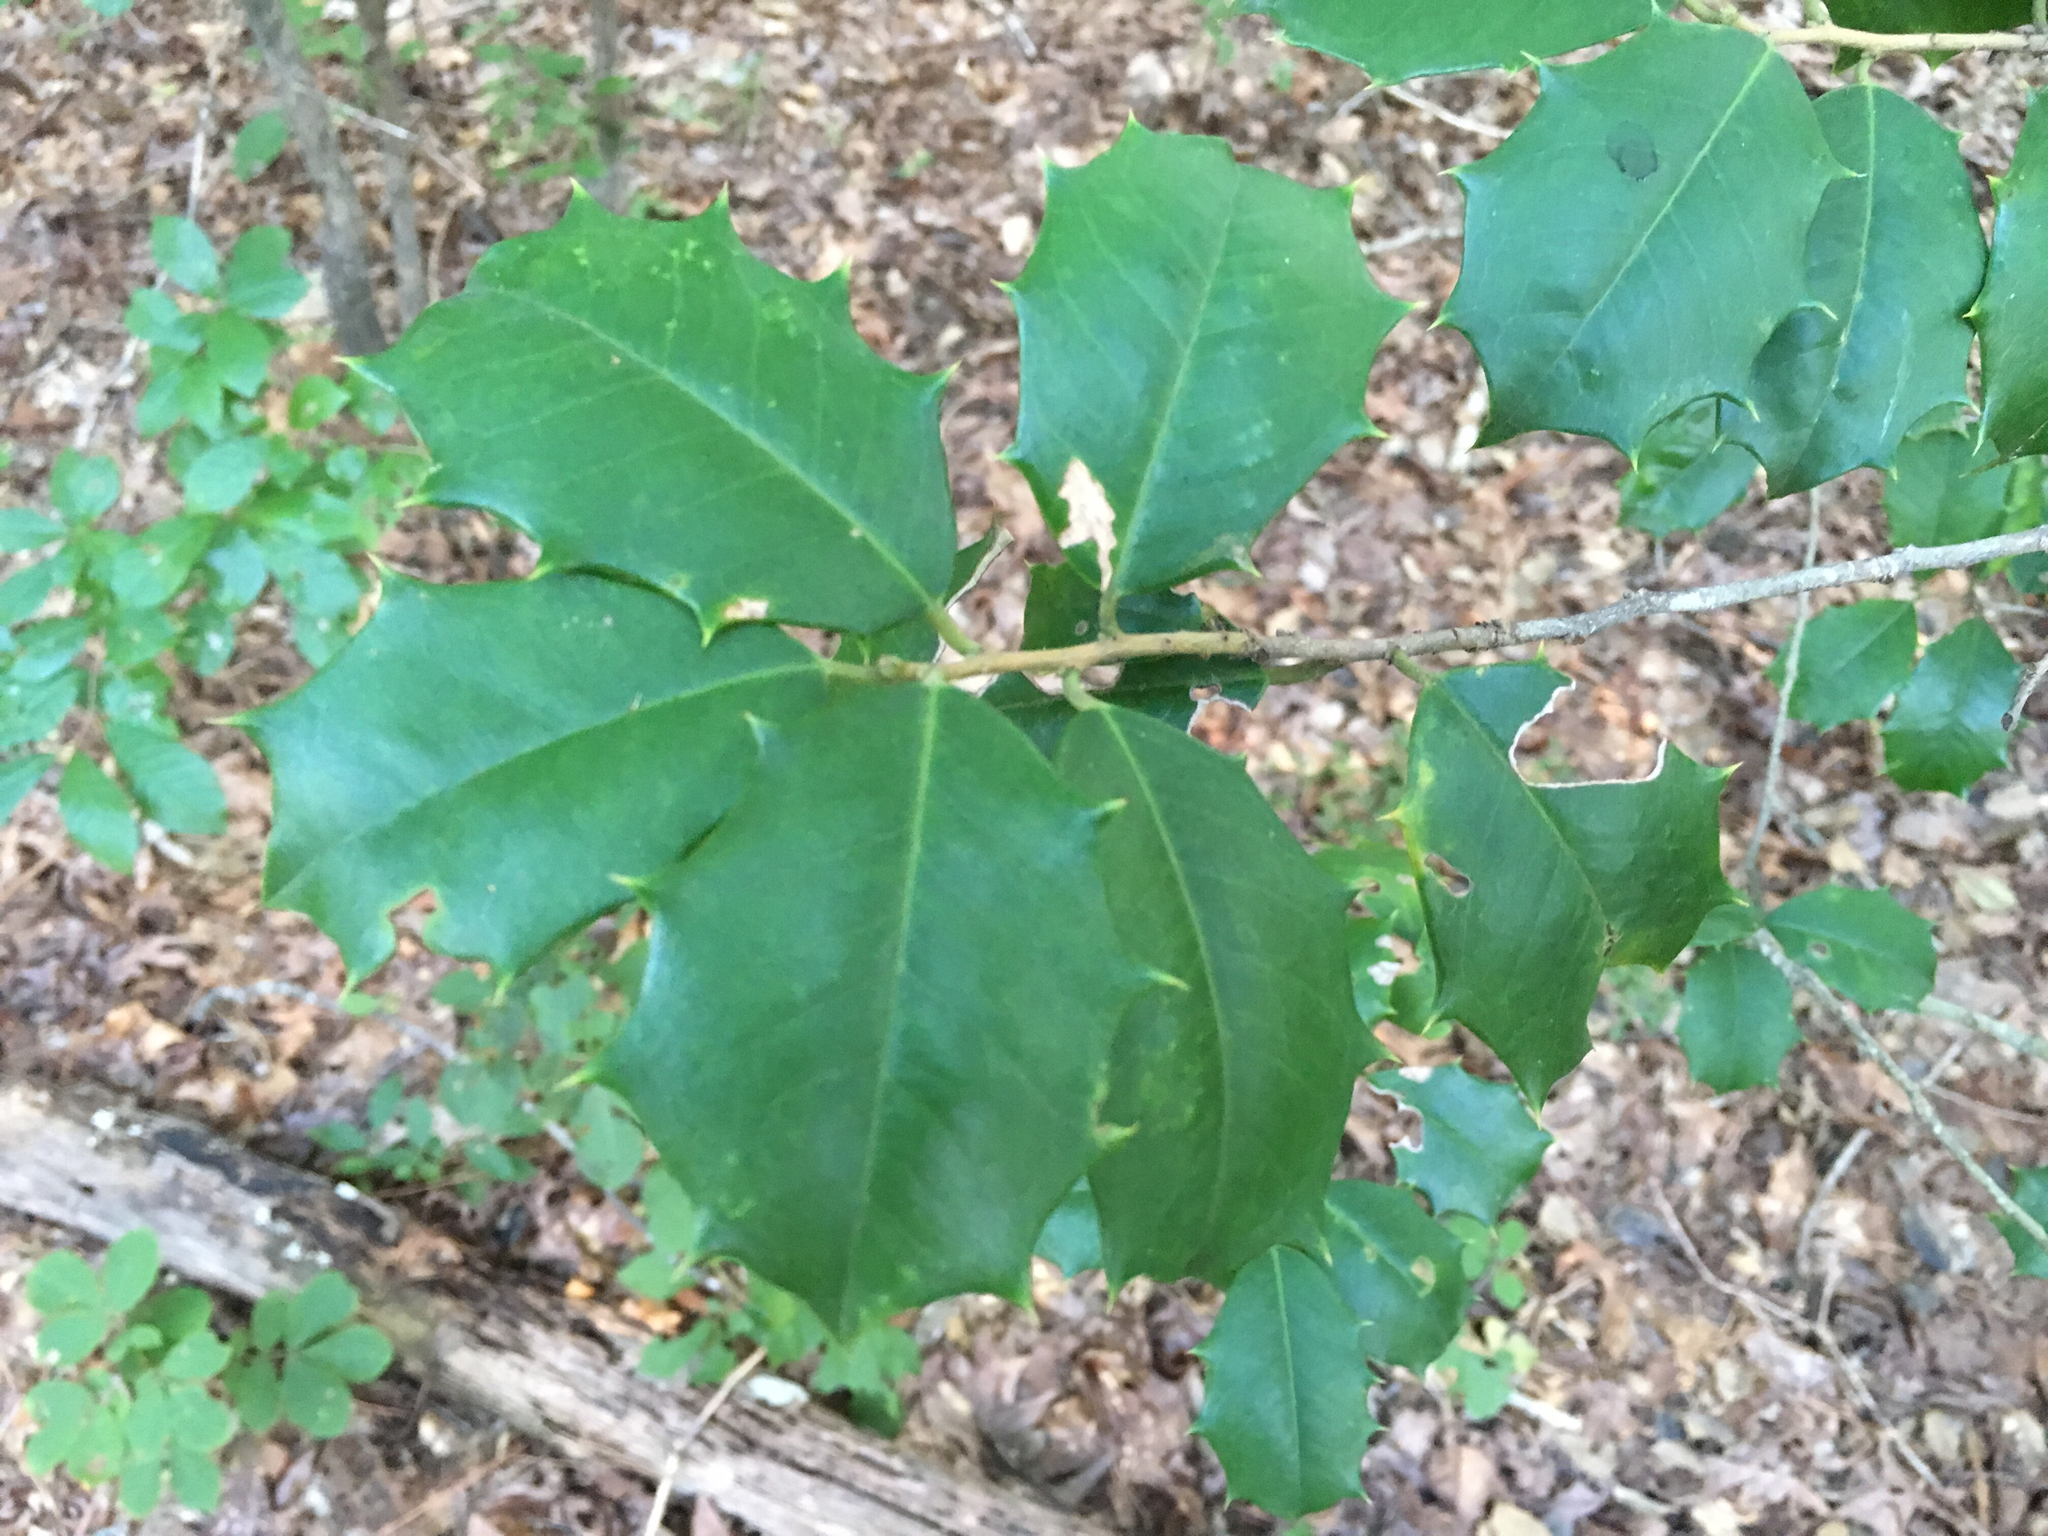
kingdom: Plantae
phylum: Tracheophyta
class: Magnoliopsida
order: Aquifoliales
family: Aquifoliaceae
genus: Ilex
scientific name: Ilex opaca
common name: American holly
